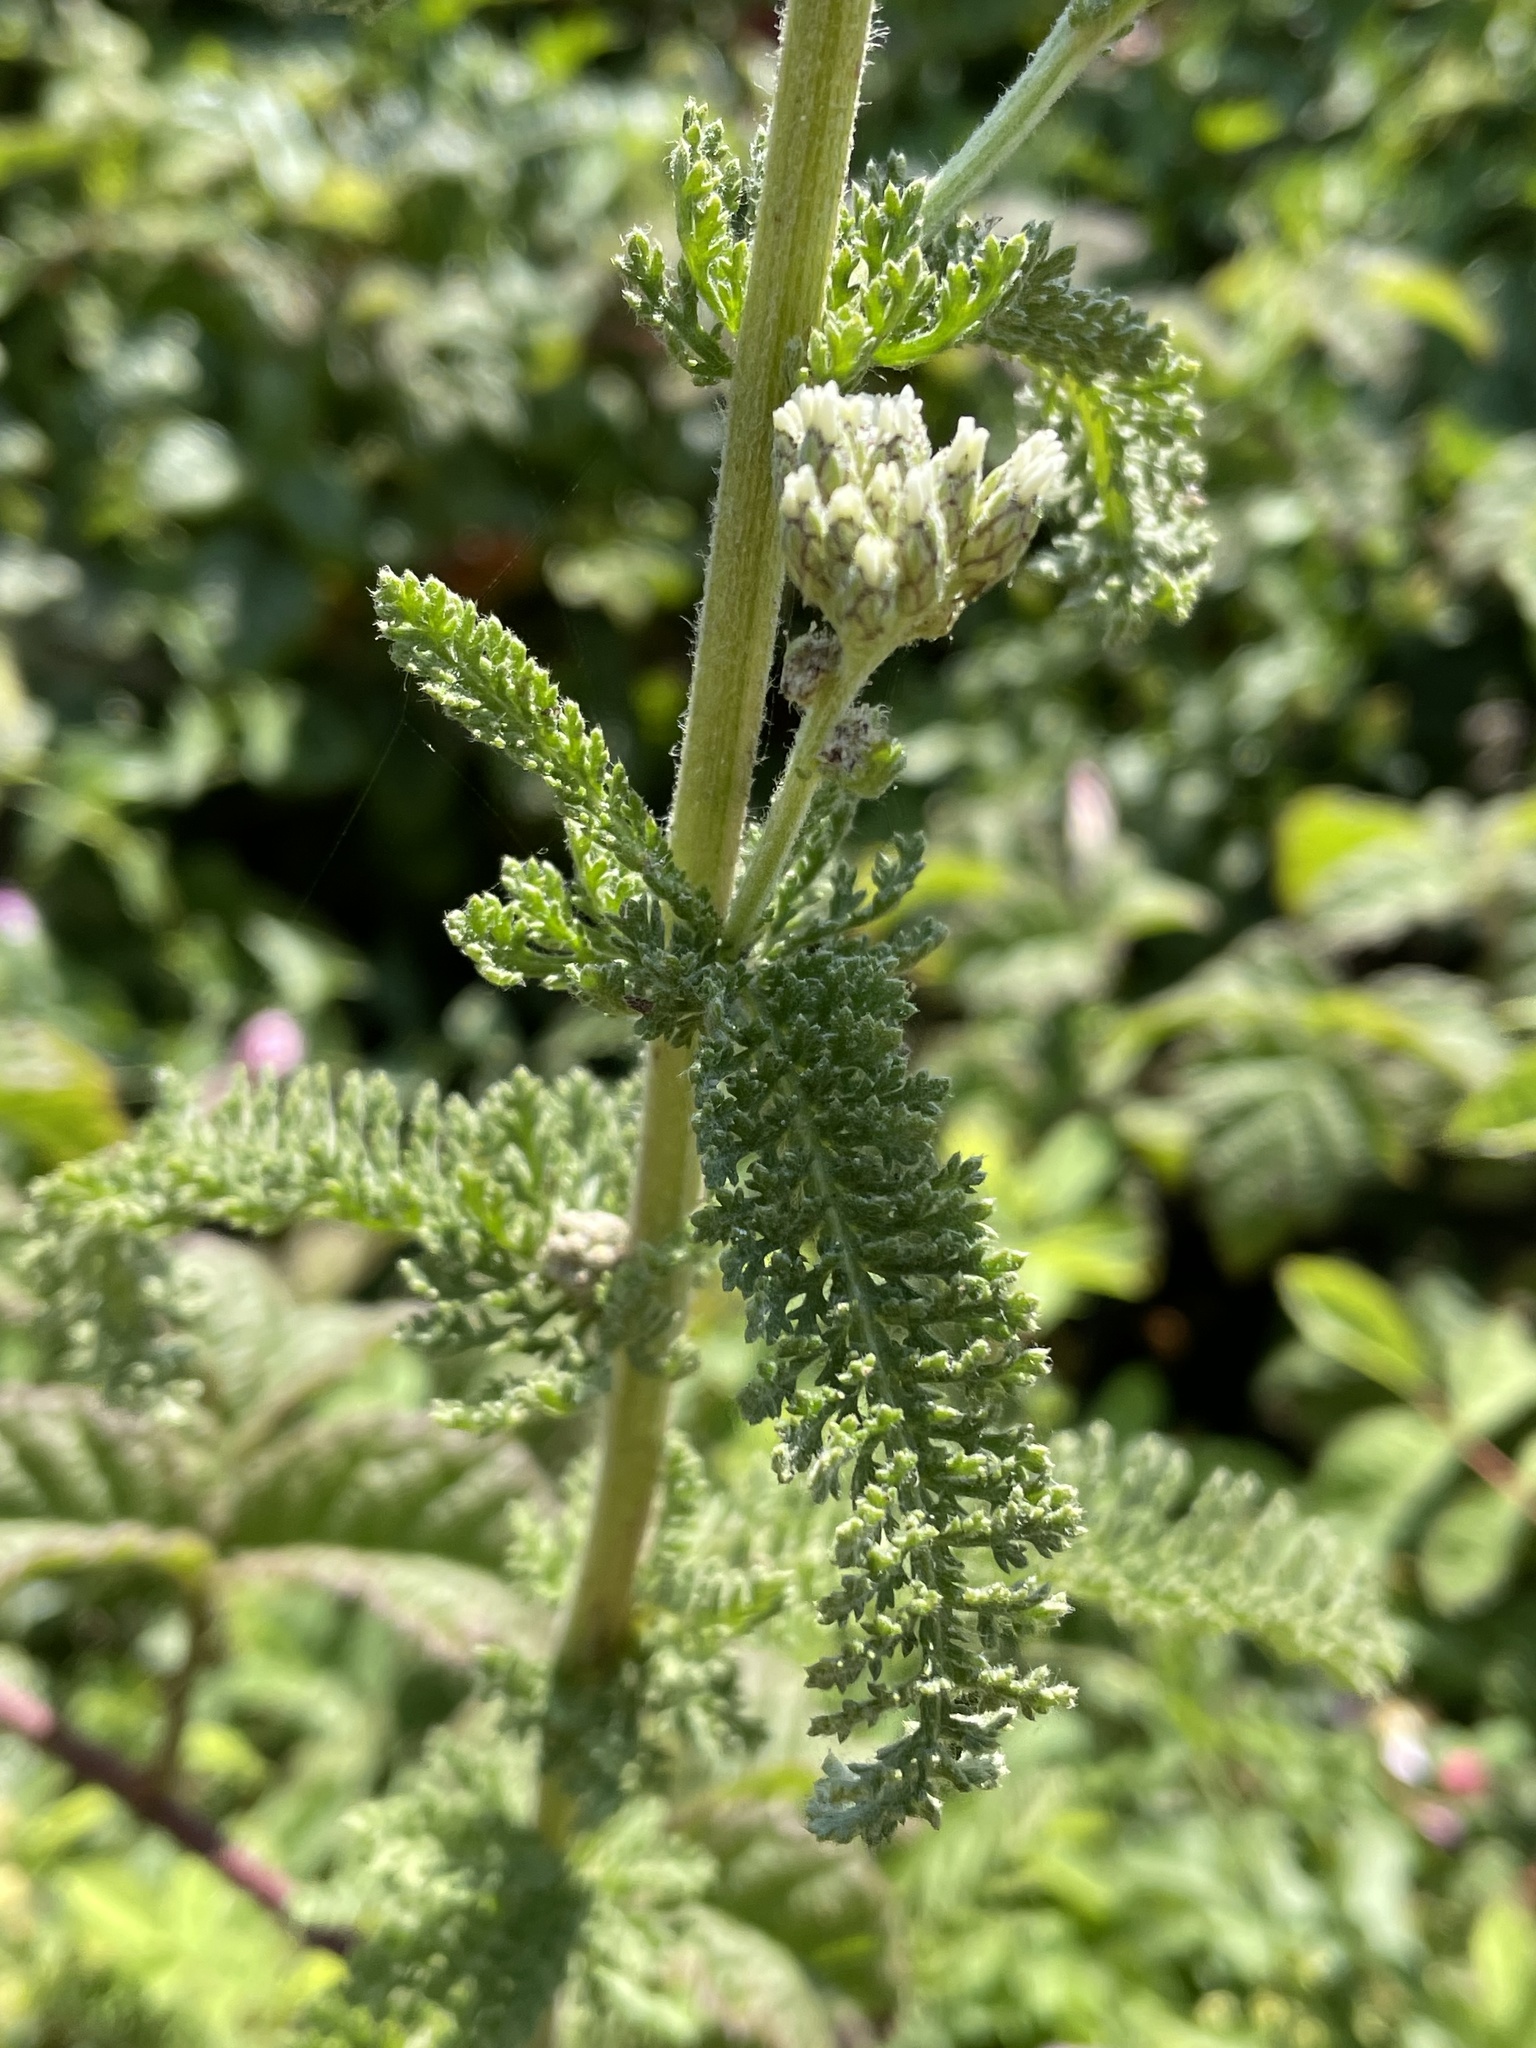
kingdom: Plantae
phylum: Tracheophyta
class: Magnoliopsida
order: Asterales
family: Asteraceae
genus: Achillea
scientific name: Achillea millefolium
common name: Yarrow
